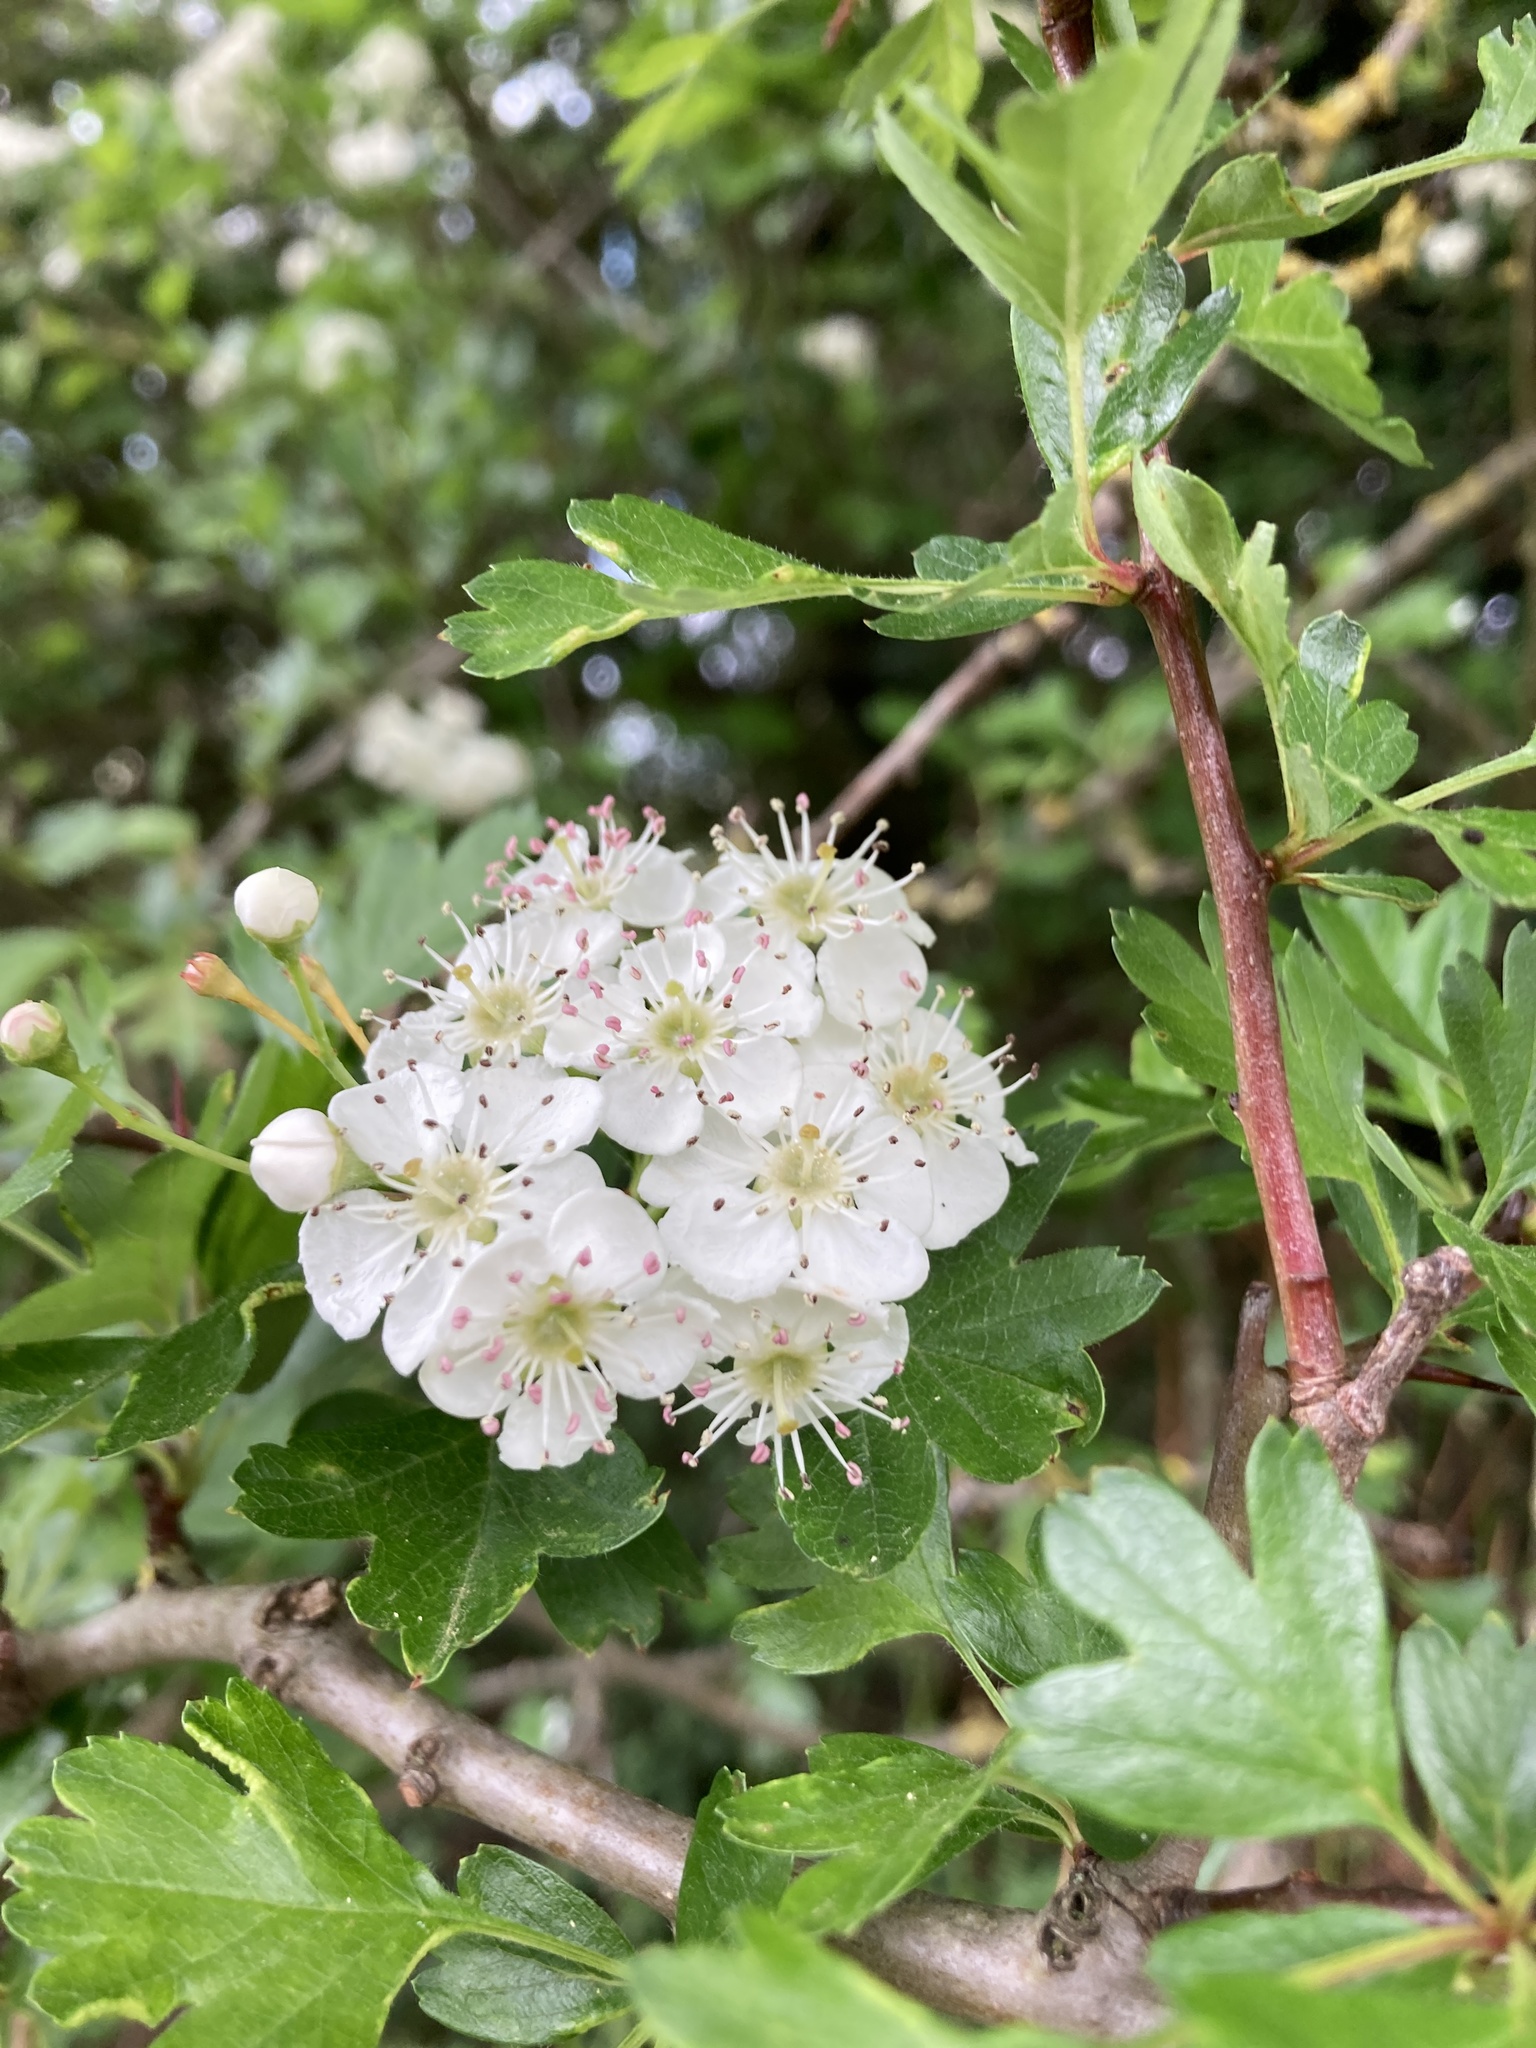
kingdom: Plantae
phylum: Tracheophyta
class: Magnoliopsida
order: Rosales
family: Rosaceae
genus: Crataegus
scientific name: Crataegus monogyna
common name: Hawthorn
